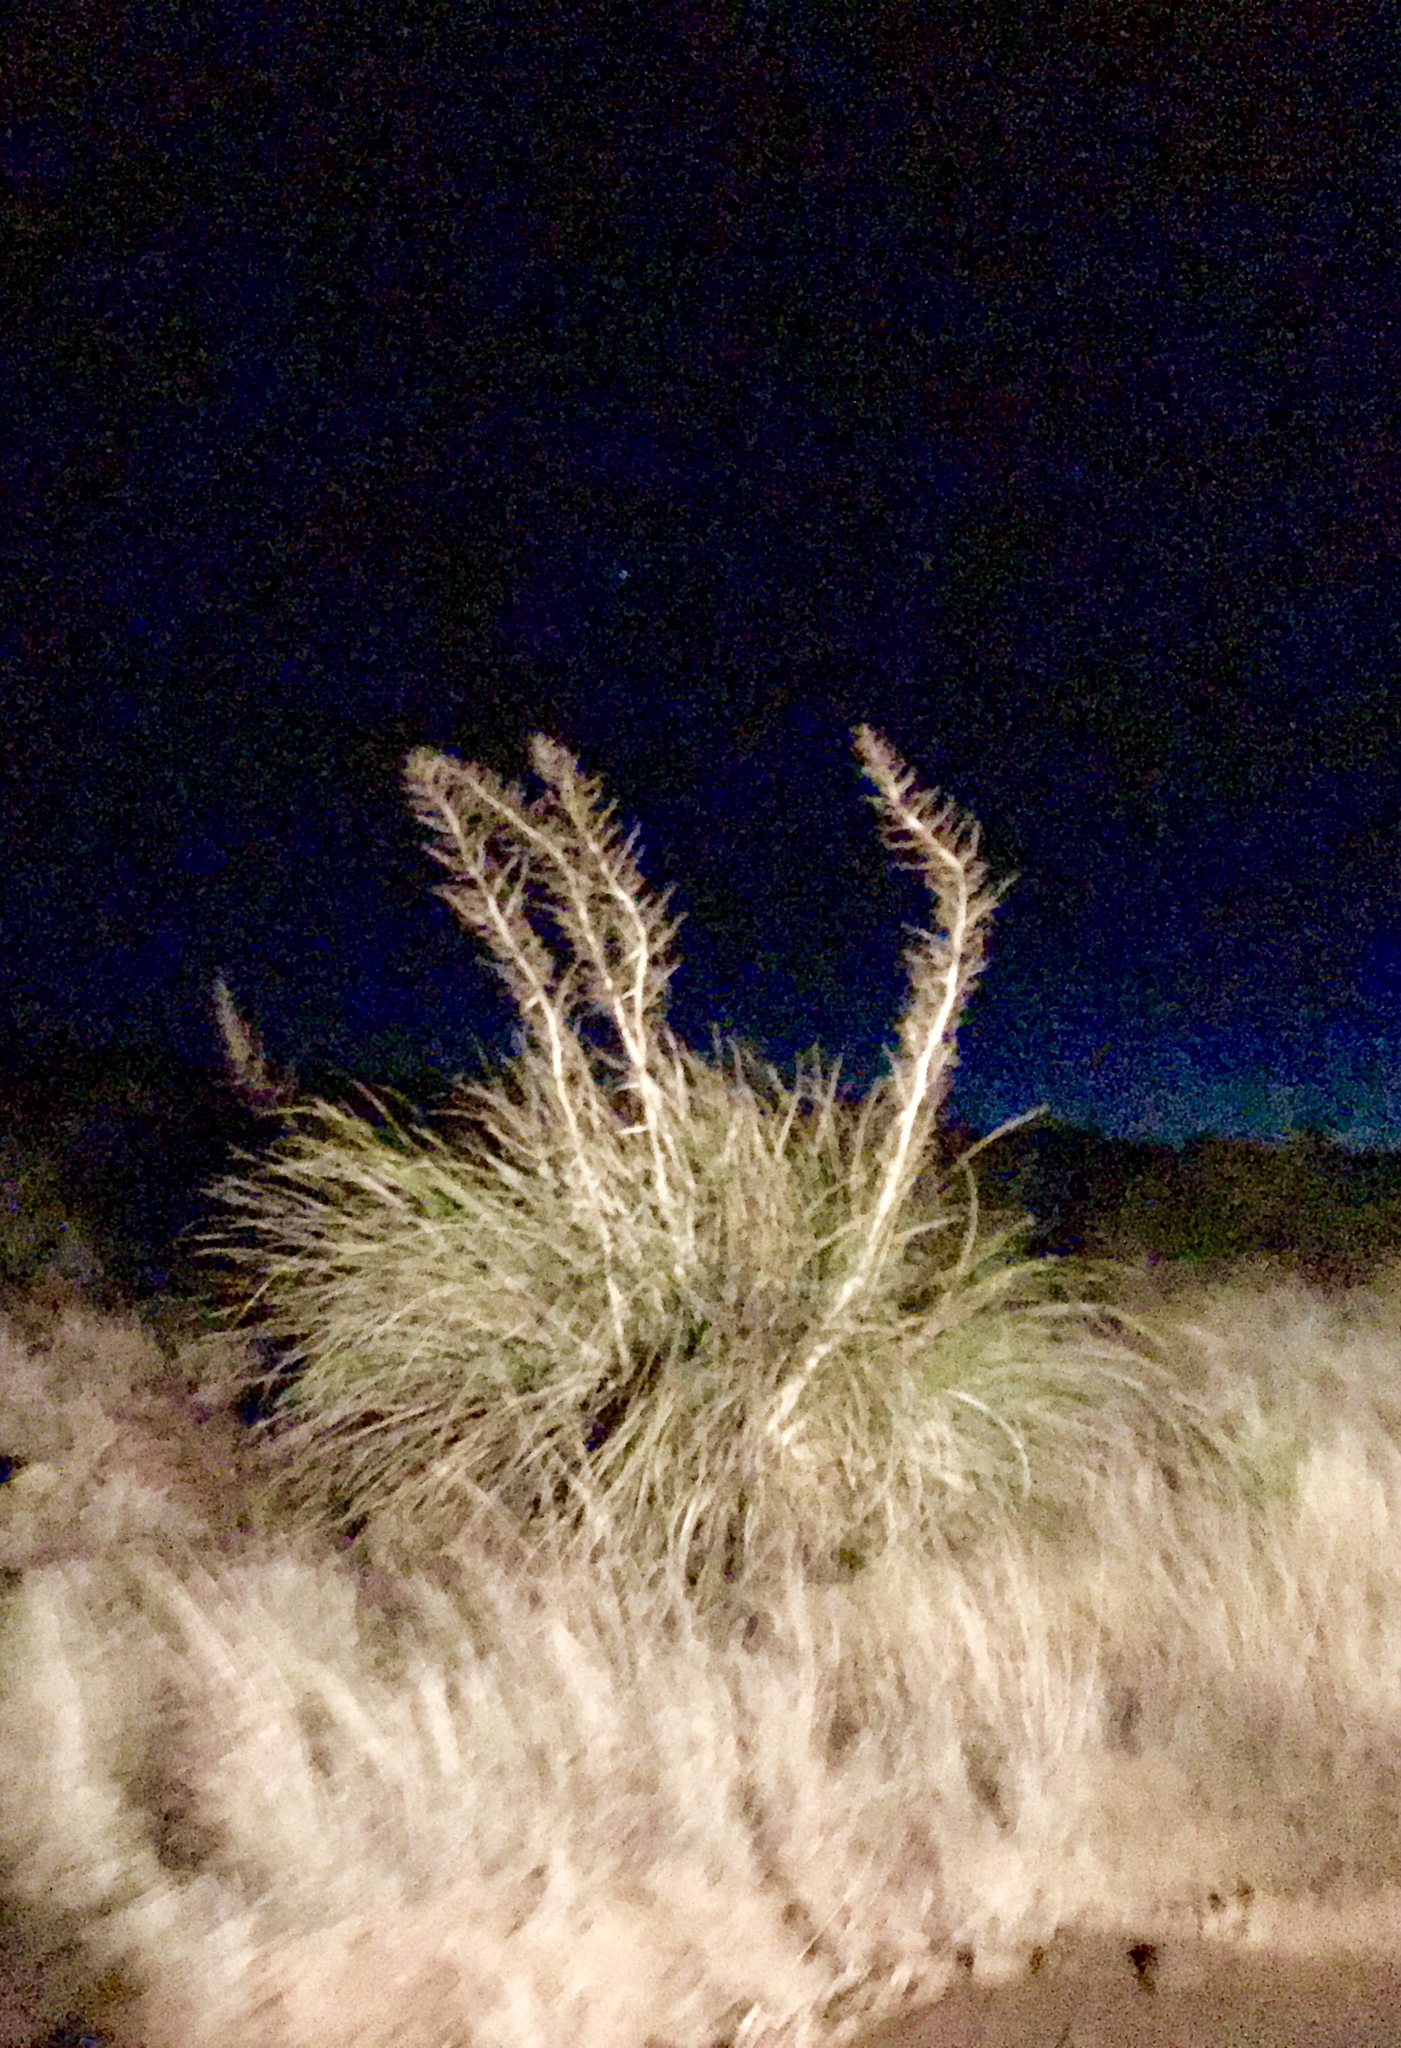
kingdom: Plantae
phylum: Tracheophyta
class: Liliopsida
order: Asparagales
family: Asparagaceae
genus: Nolina
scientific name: Nolina microcarpa
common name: Bear-grass
